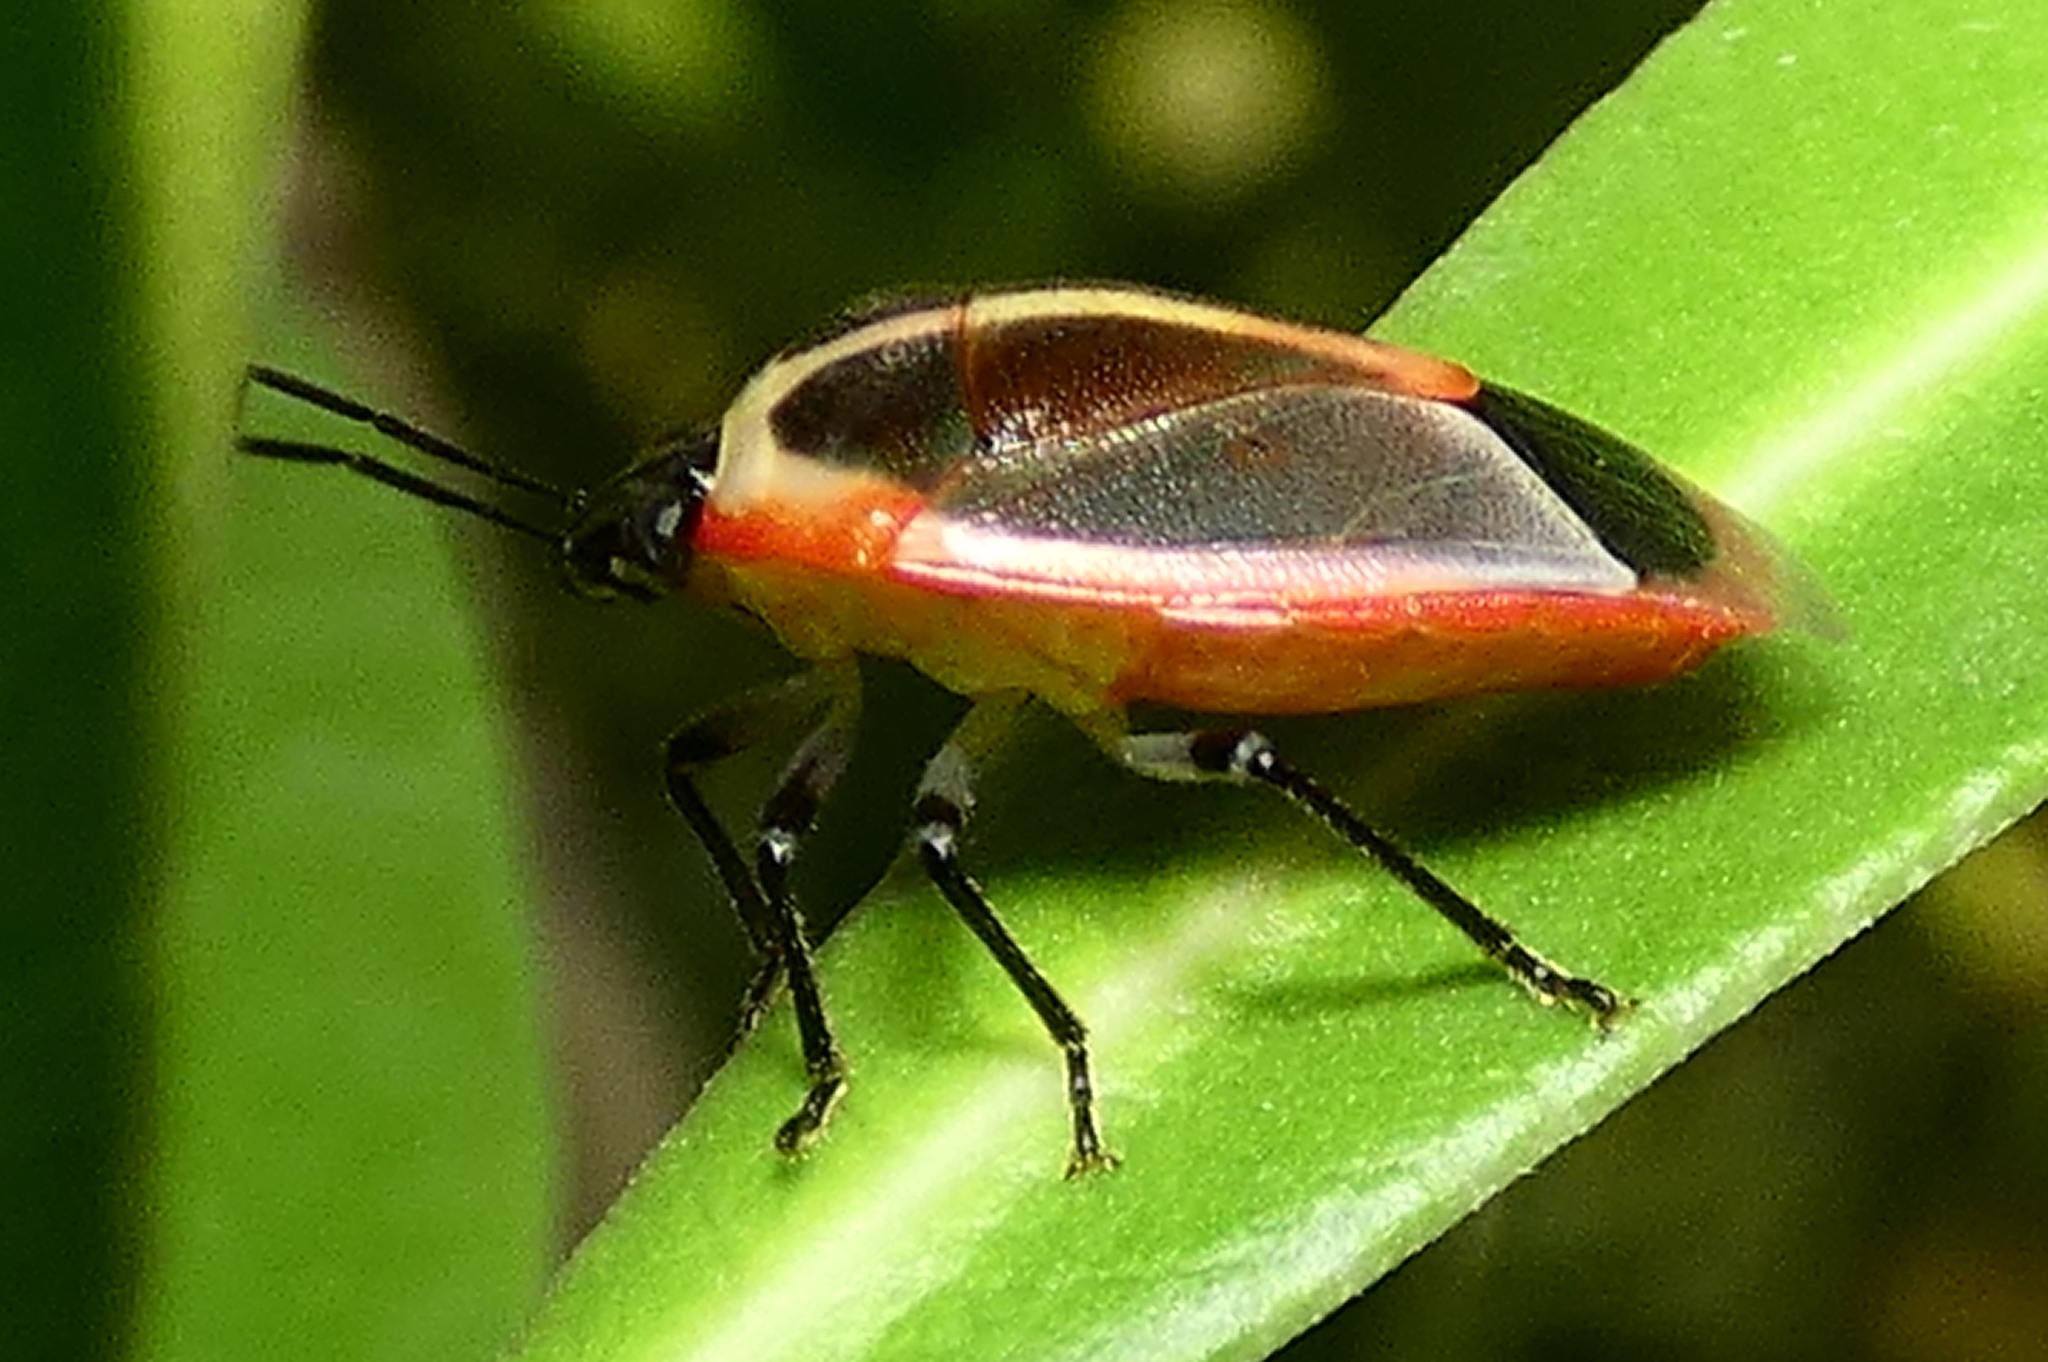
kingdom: Animalia
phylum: Arthropoda
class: Insecta
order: Hemiptera
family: Pentatomidae
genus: Roferta
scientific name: Roferta marginalis
